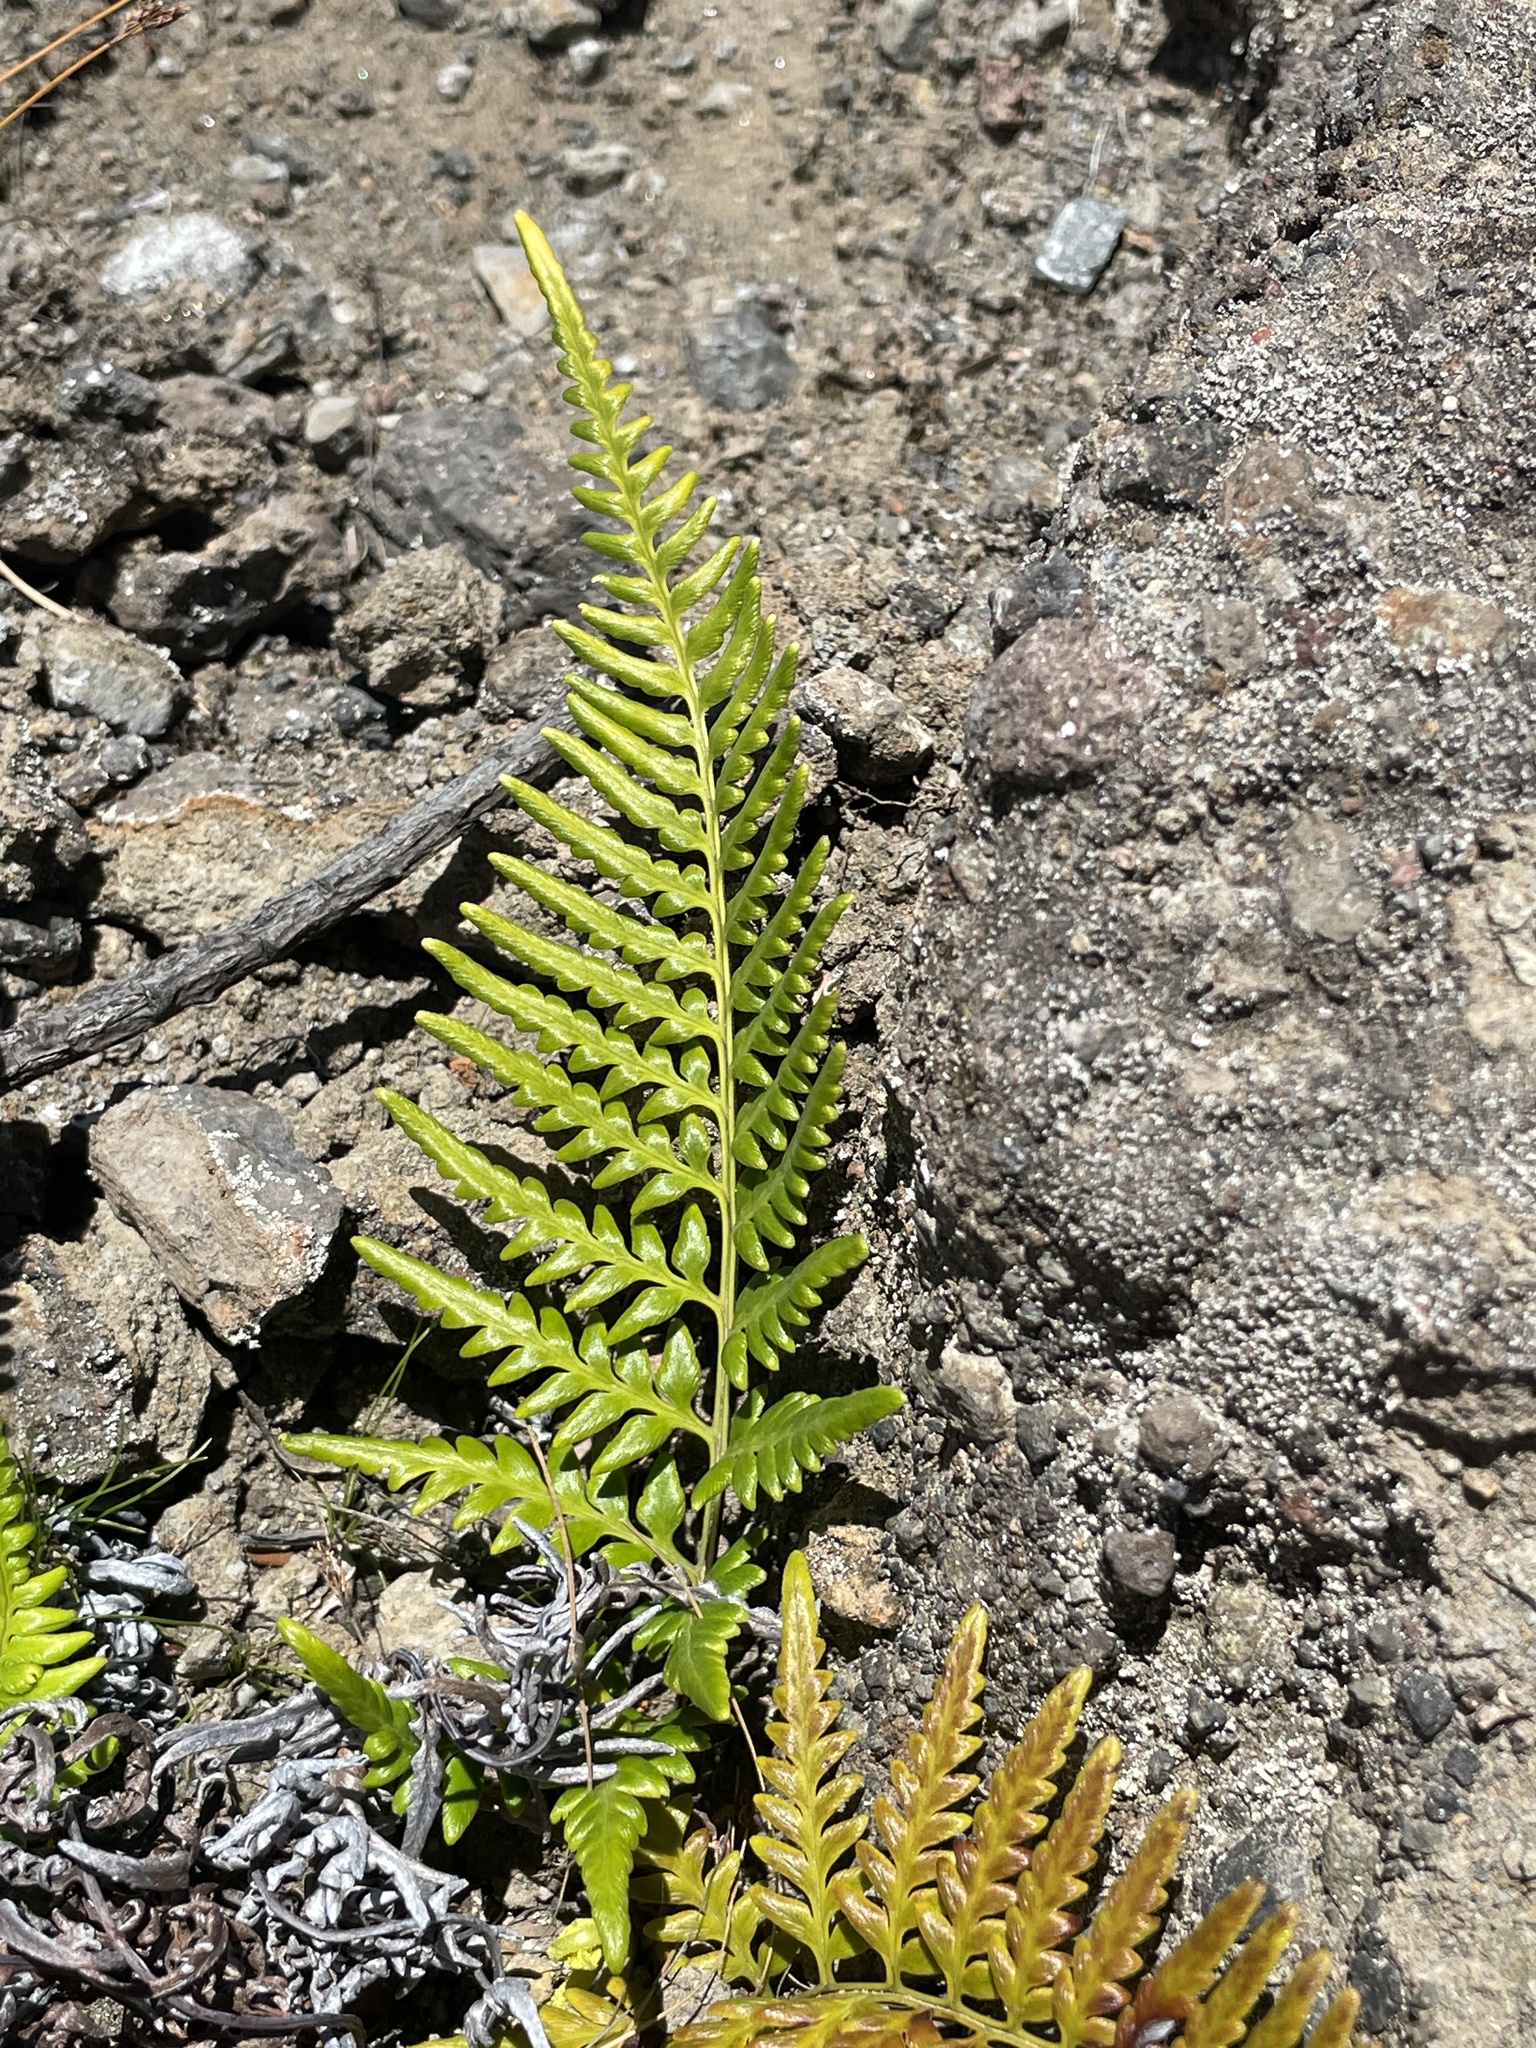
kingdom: Plantae
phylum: Tracheophyta
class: Polypodiopsida
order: Polypodiales
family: Pteridaceae
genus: Pityrogramma
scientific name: Pityrogramma austroamericana
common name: Leatherleaf goldback fern
